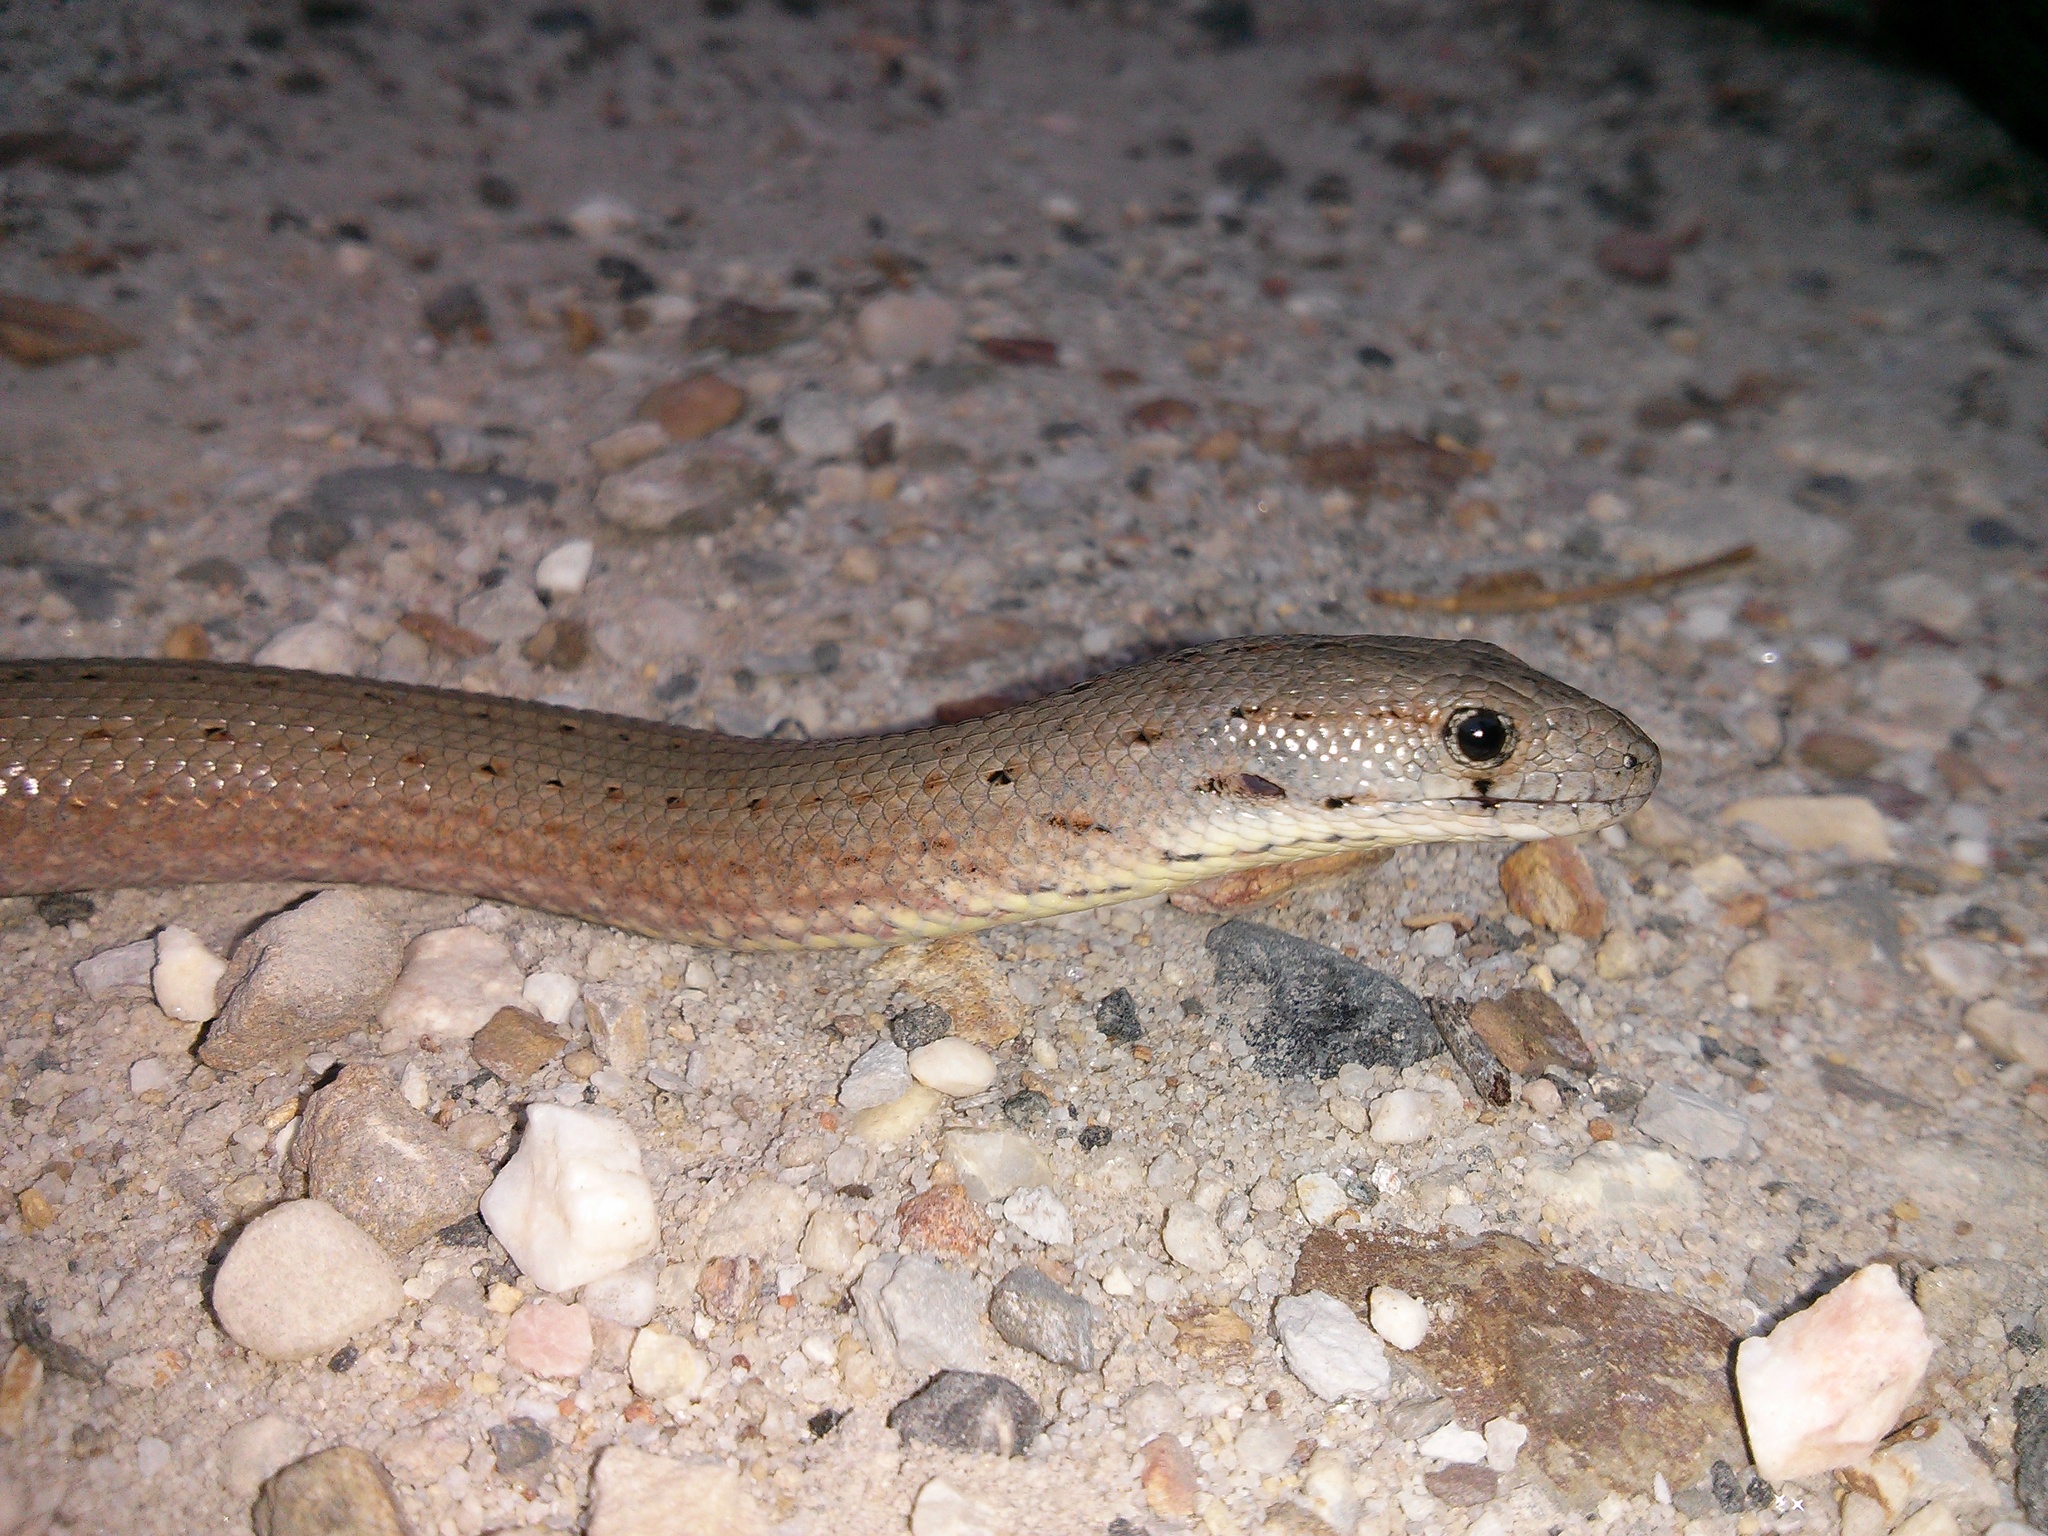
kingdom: Animalia
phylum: Chordata
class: Squamata
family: Pygopodidae
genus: Pygopus
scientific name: Pygopus lepidopodus
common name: Southern scaly-foot
